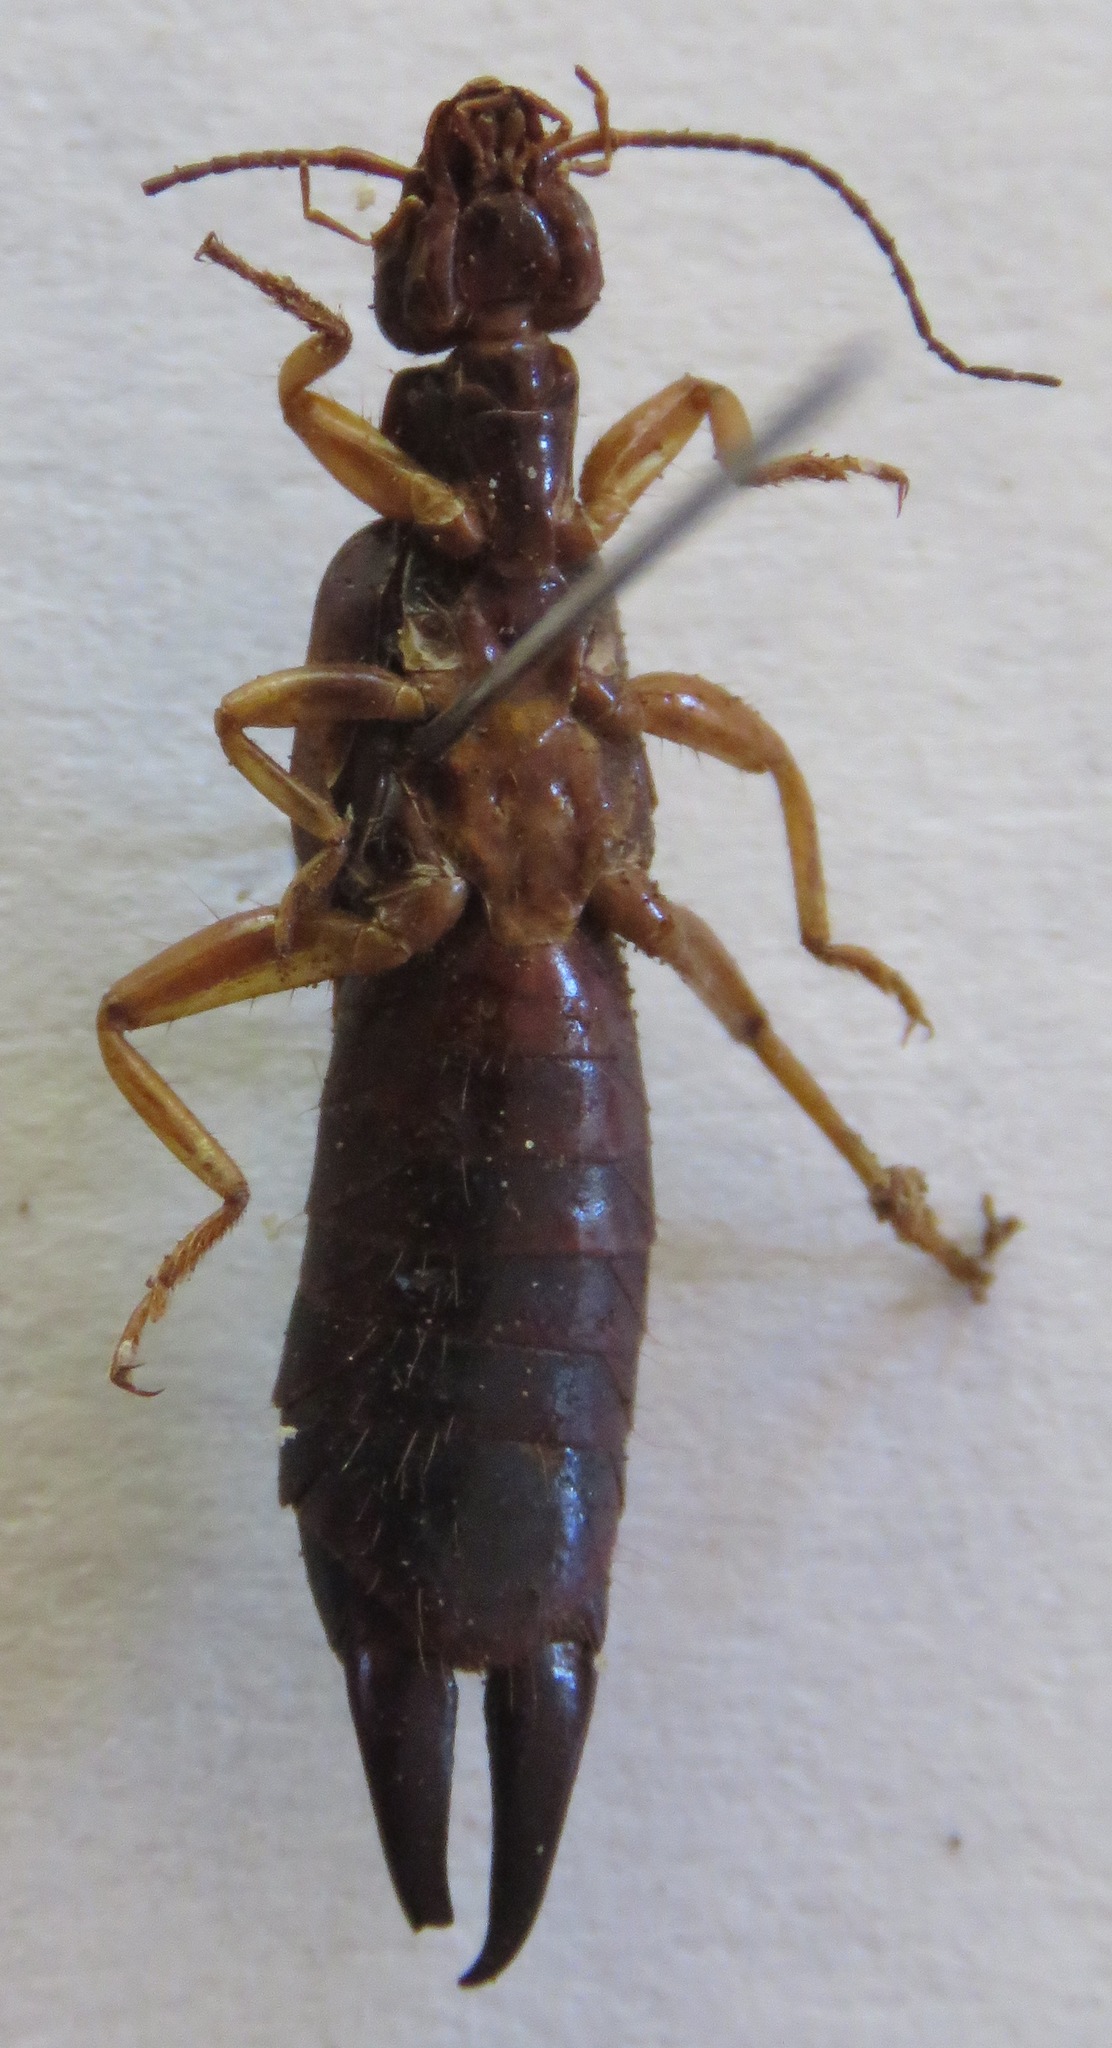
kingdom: Animalia
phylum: Arthropoda
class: Insecta
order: Dermaptera
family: Anisolabididae
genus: Carcinophora
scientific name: Carcinophora americana
